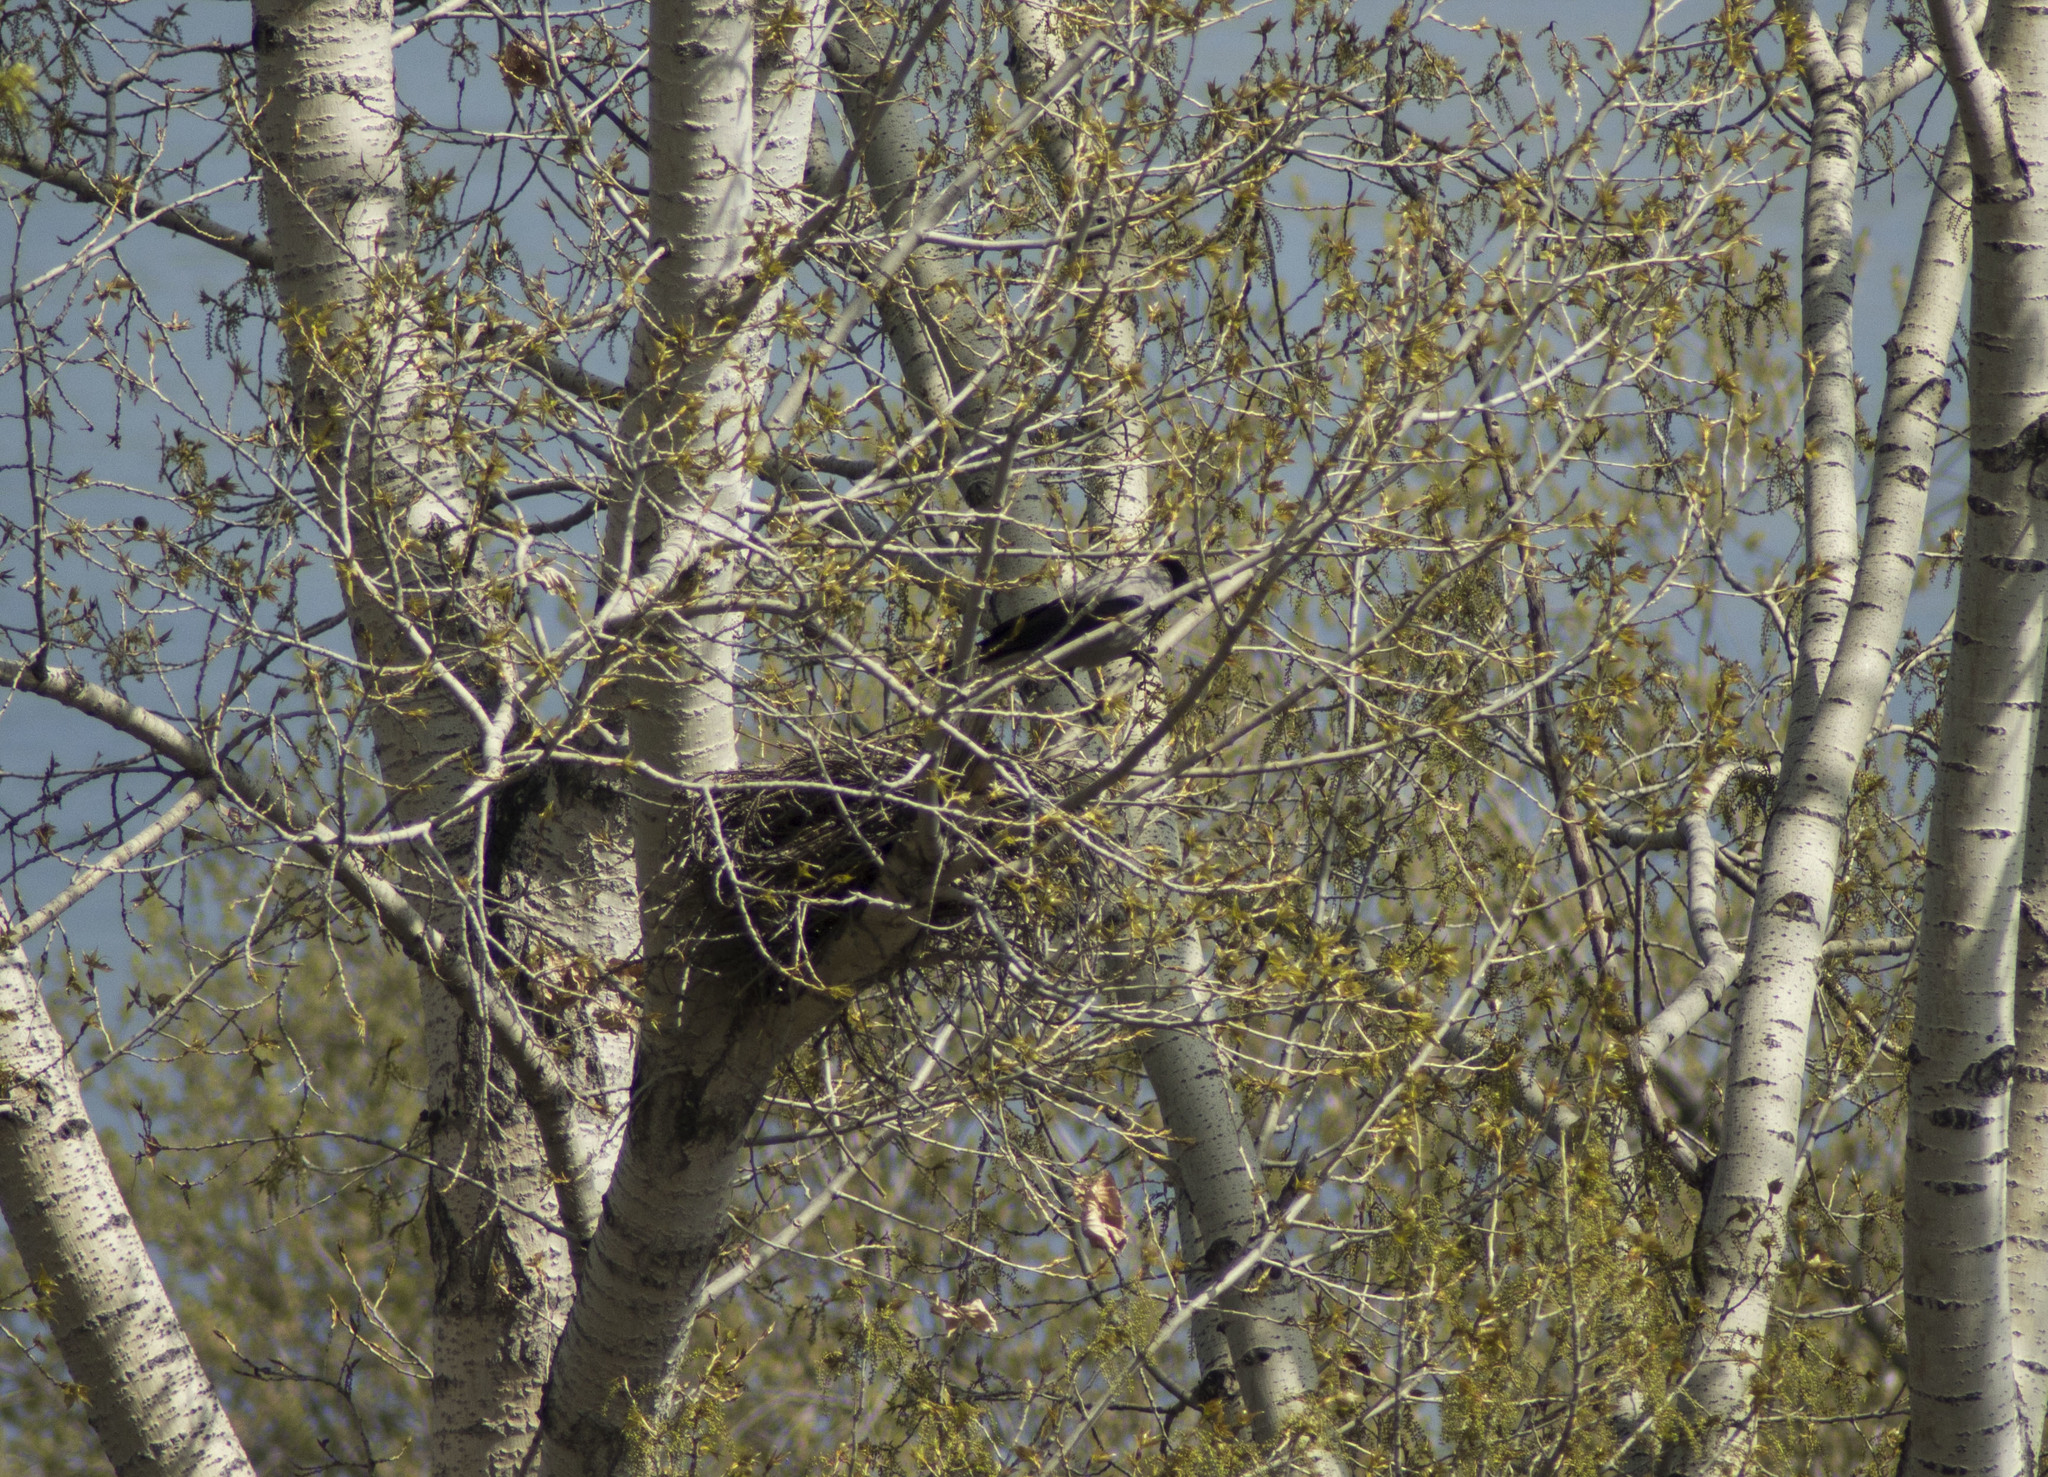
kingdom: Animalia
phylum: Chordata
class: Aves
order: Passeriformes
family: Corvidae
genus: Corvus
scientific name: Corvus cornix
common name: Hooded crow
